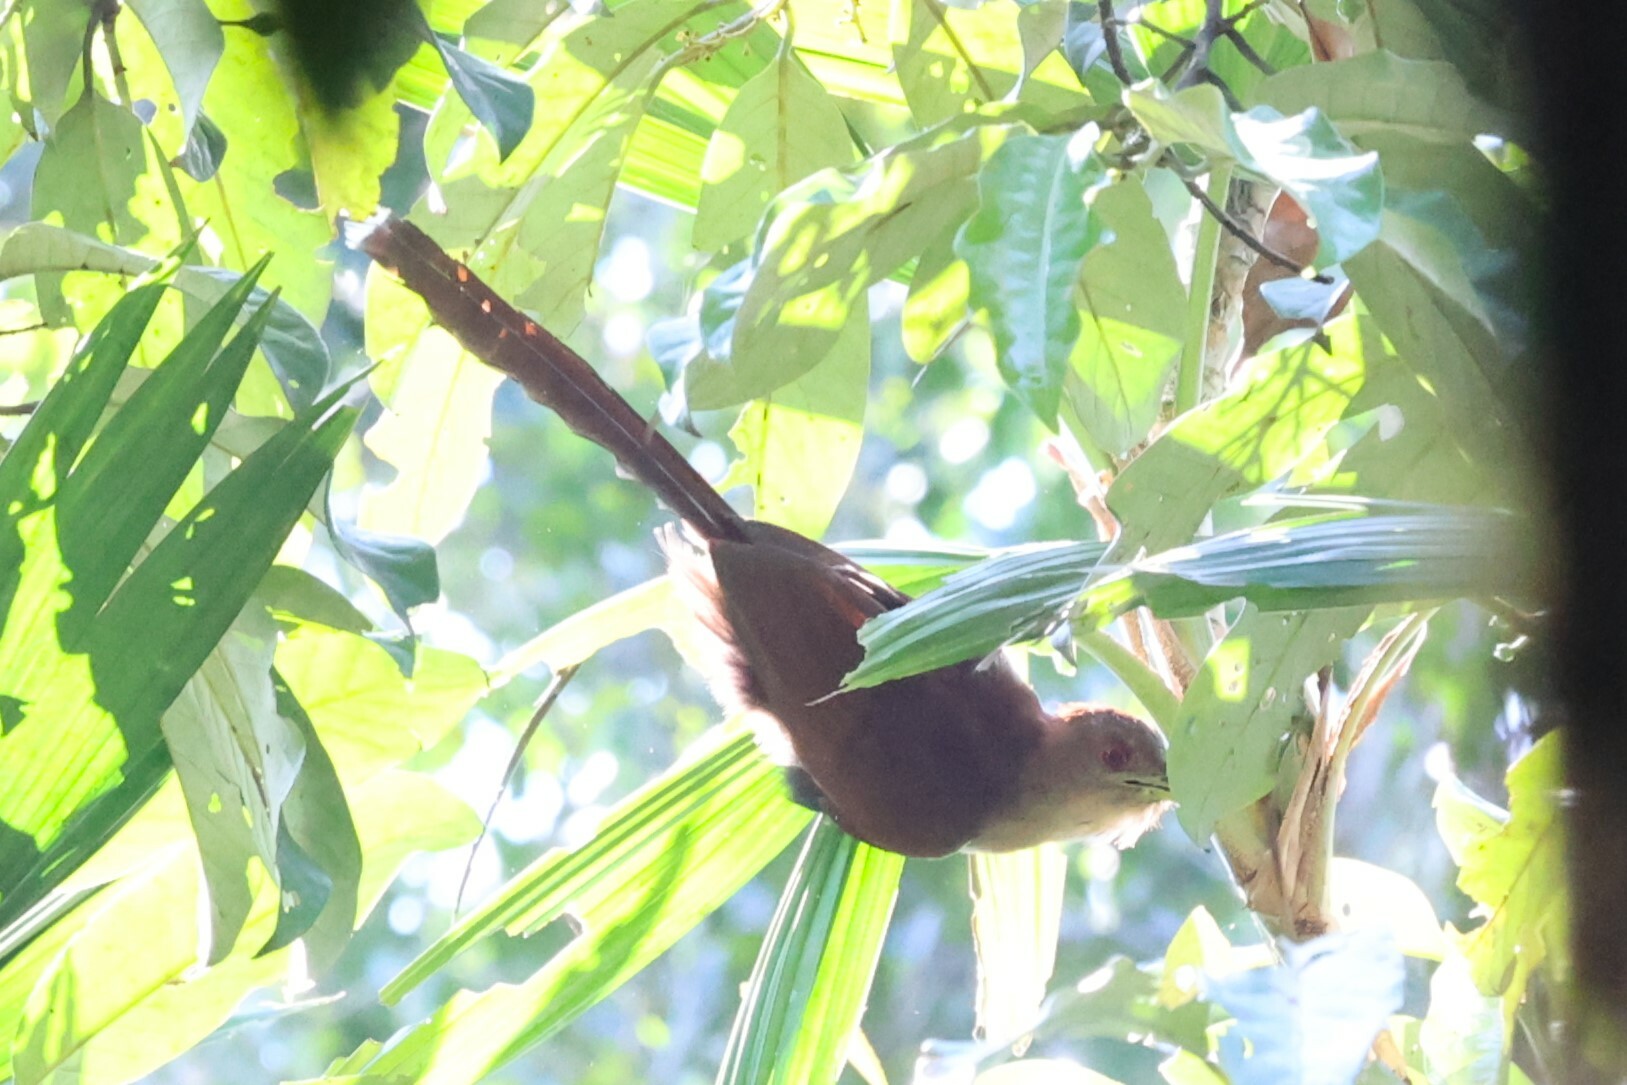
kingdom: Animalia
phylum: Chordata
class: Aves
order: Cuculiformes
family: Cuculidae
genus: Piaya
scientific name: Piaya cayana
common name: Squirrel cuckoo
